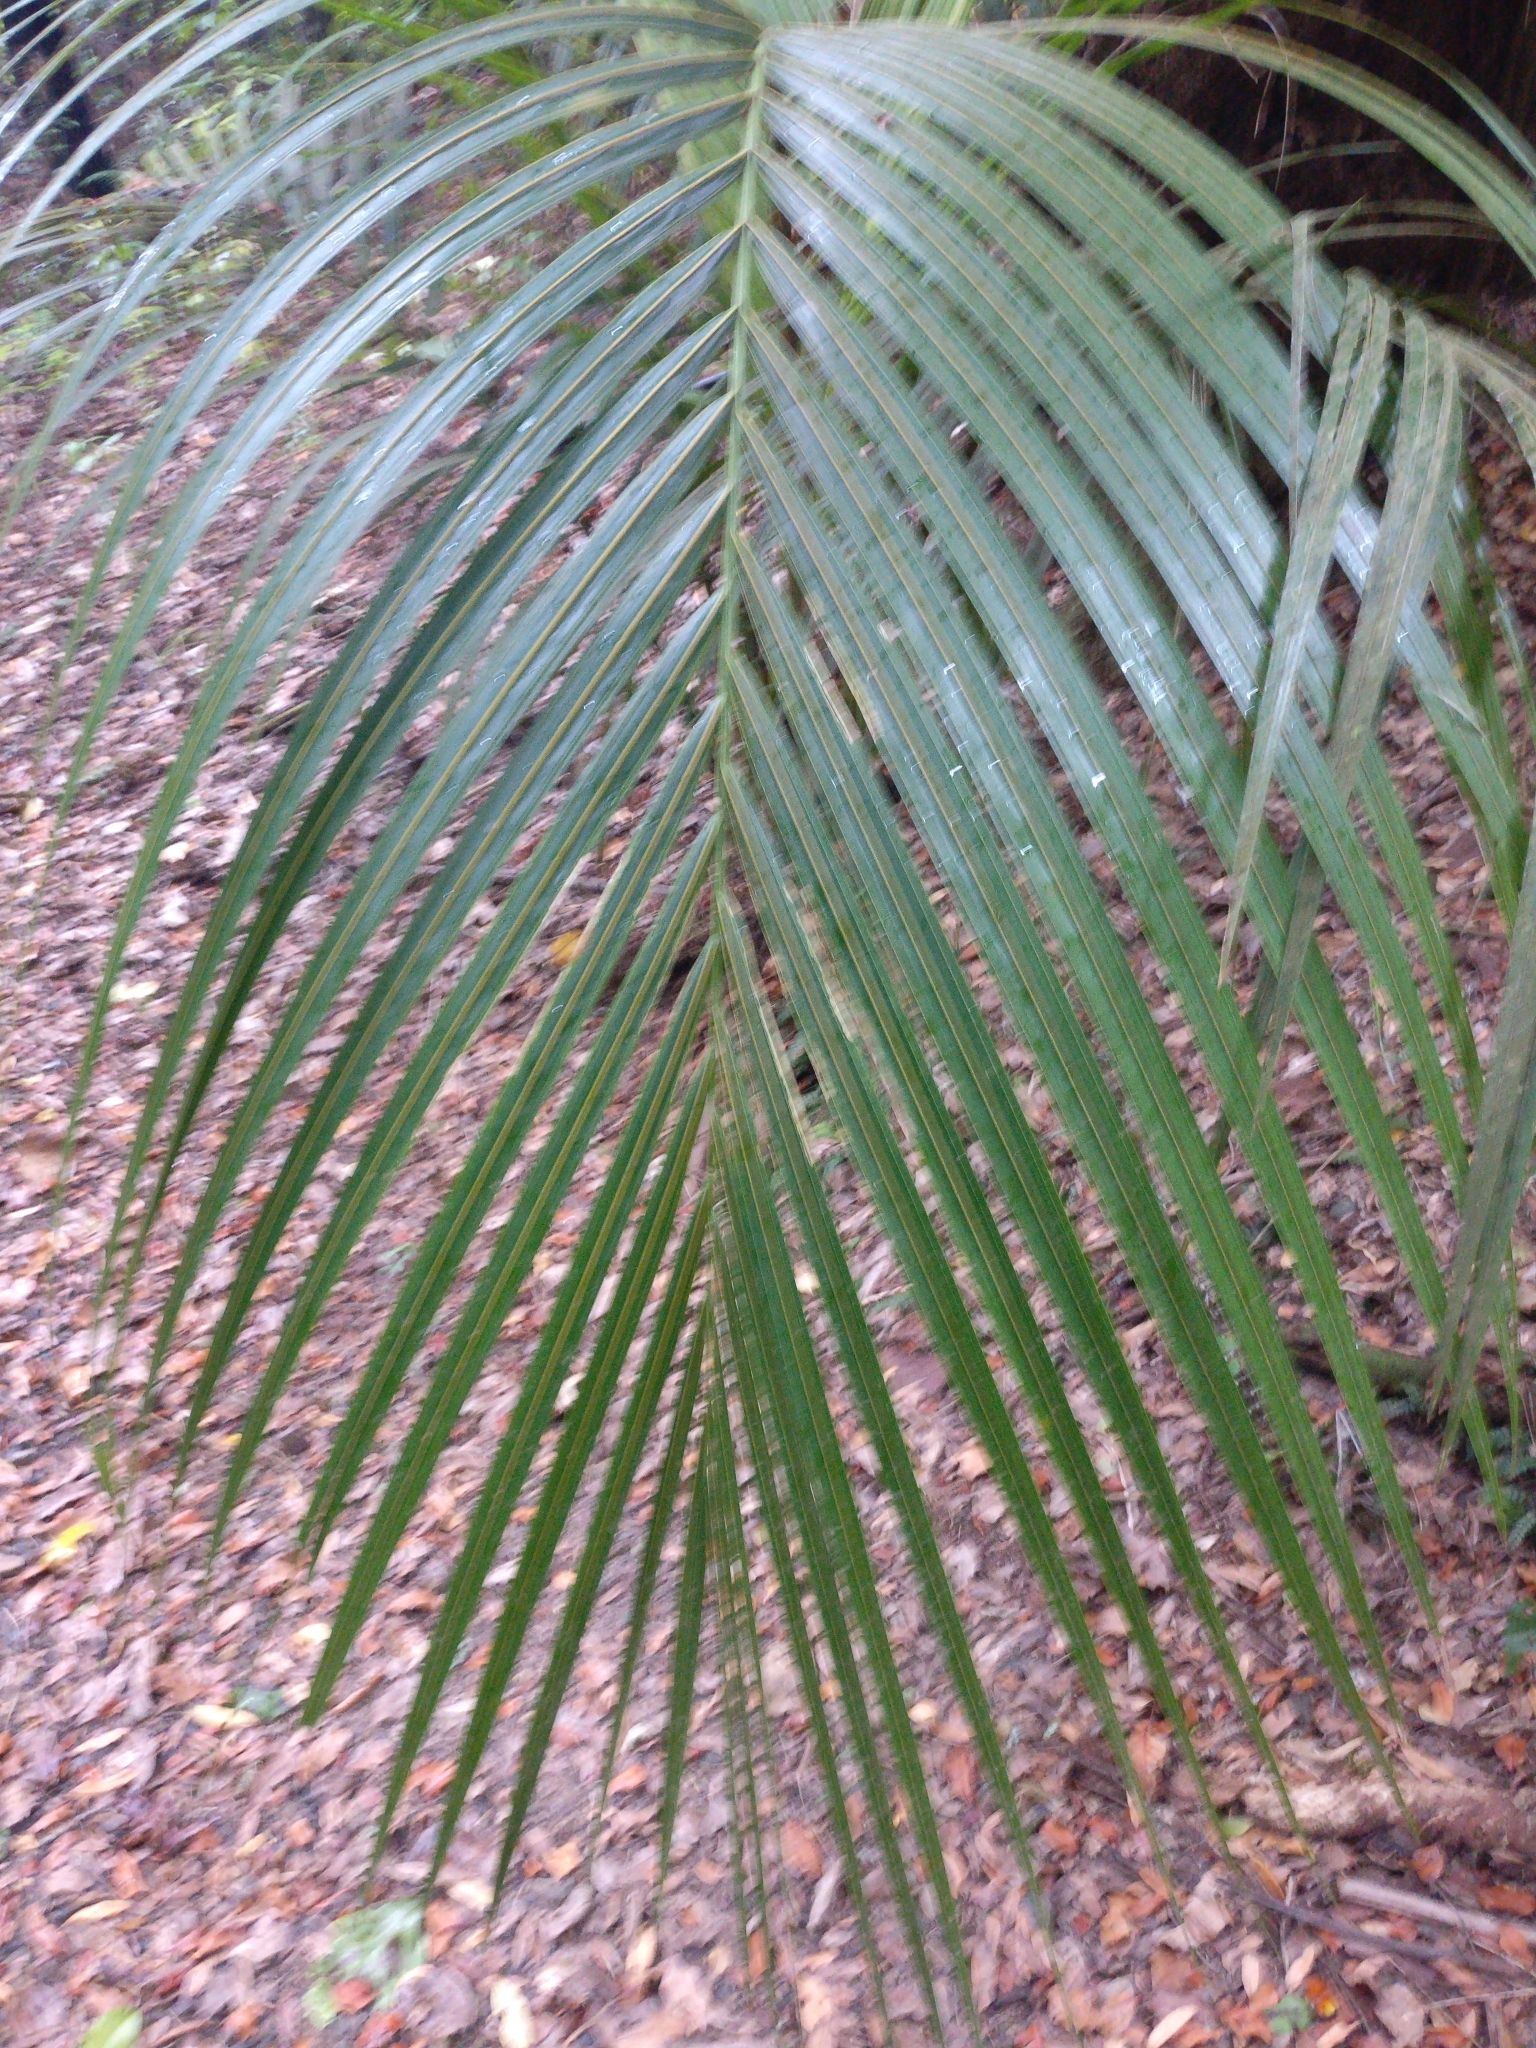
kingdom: Plantae
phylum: Tracheophyta
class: Liliopsida
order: Arecales
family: Arecaceae
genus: Rhopalostylis
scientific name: Rhopalostylis sapida
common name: Feather-duster palm
